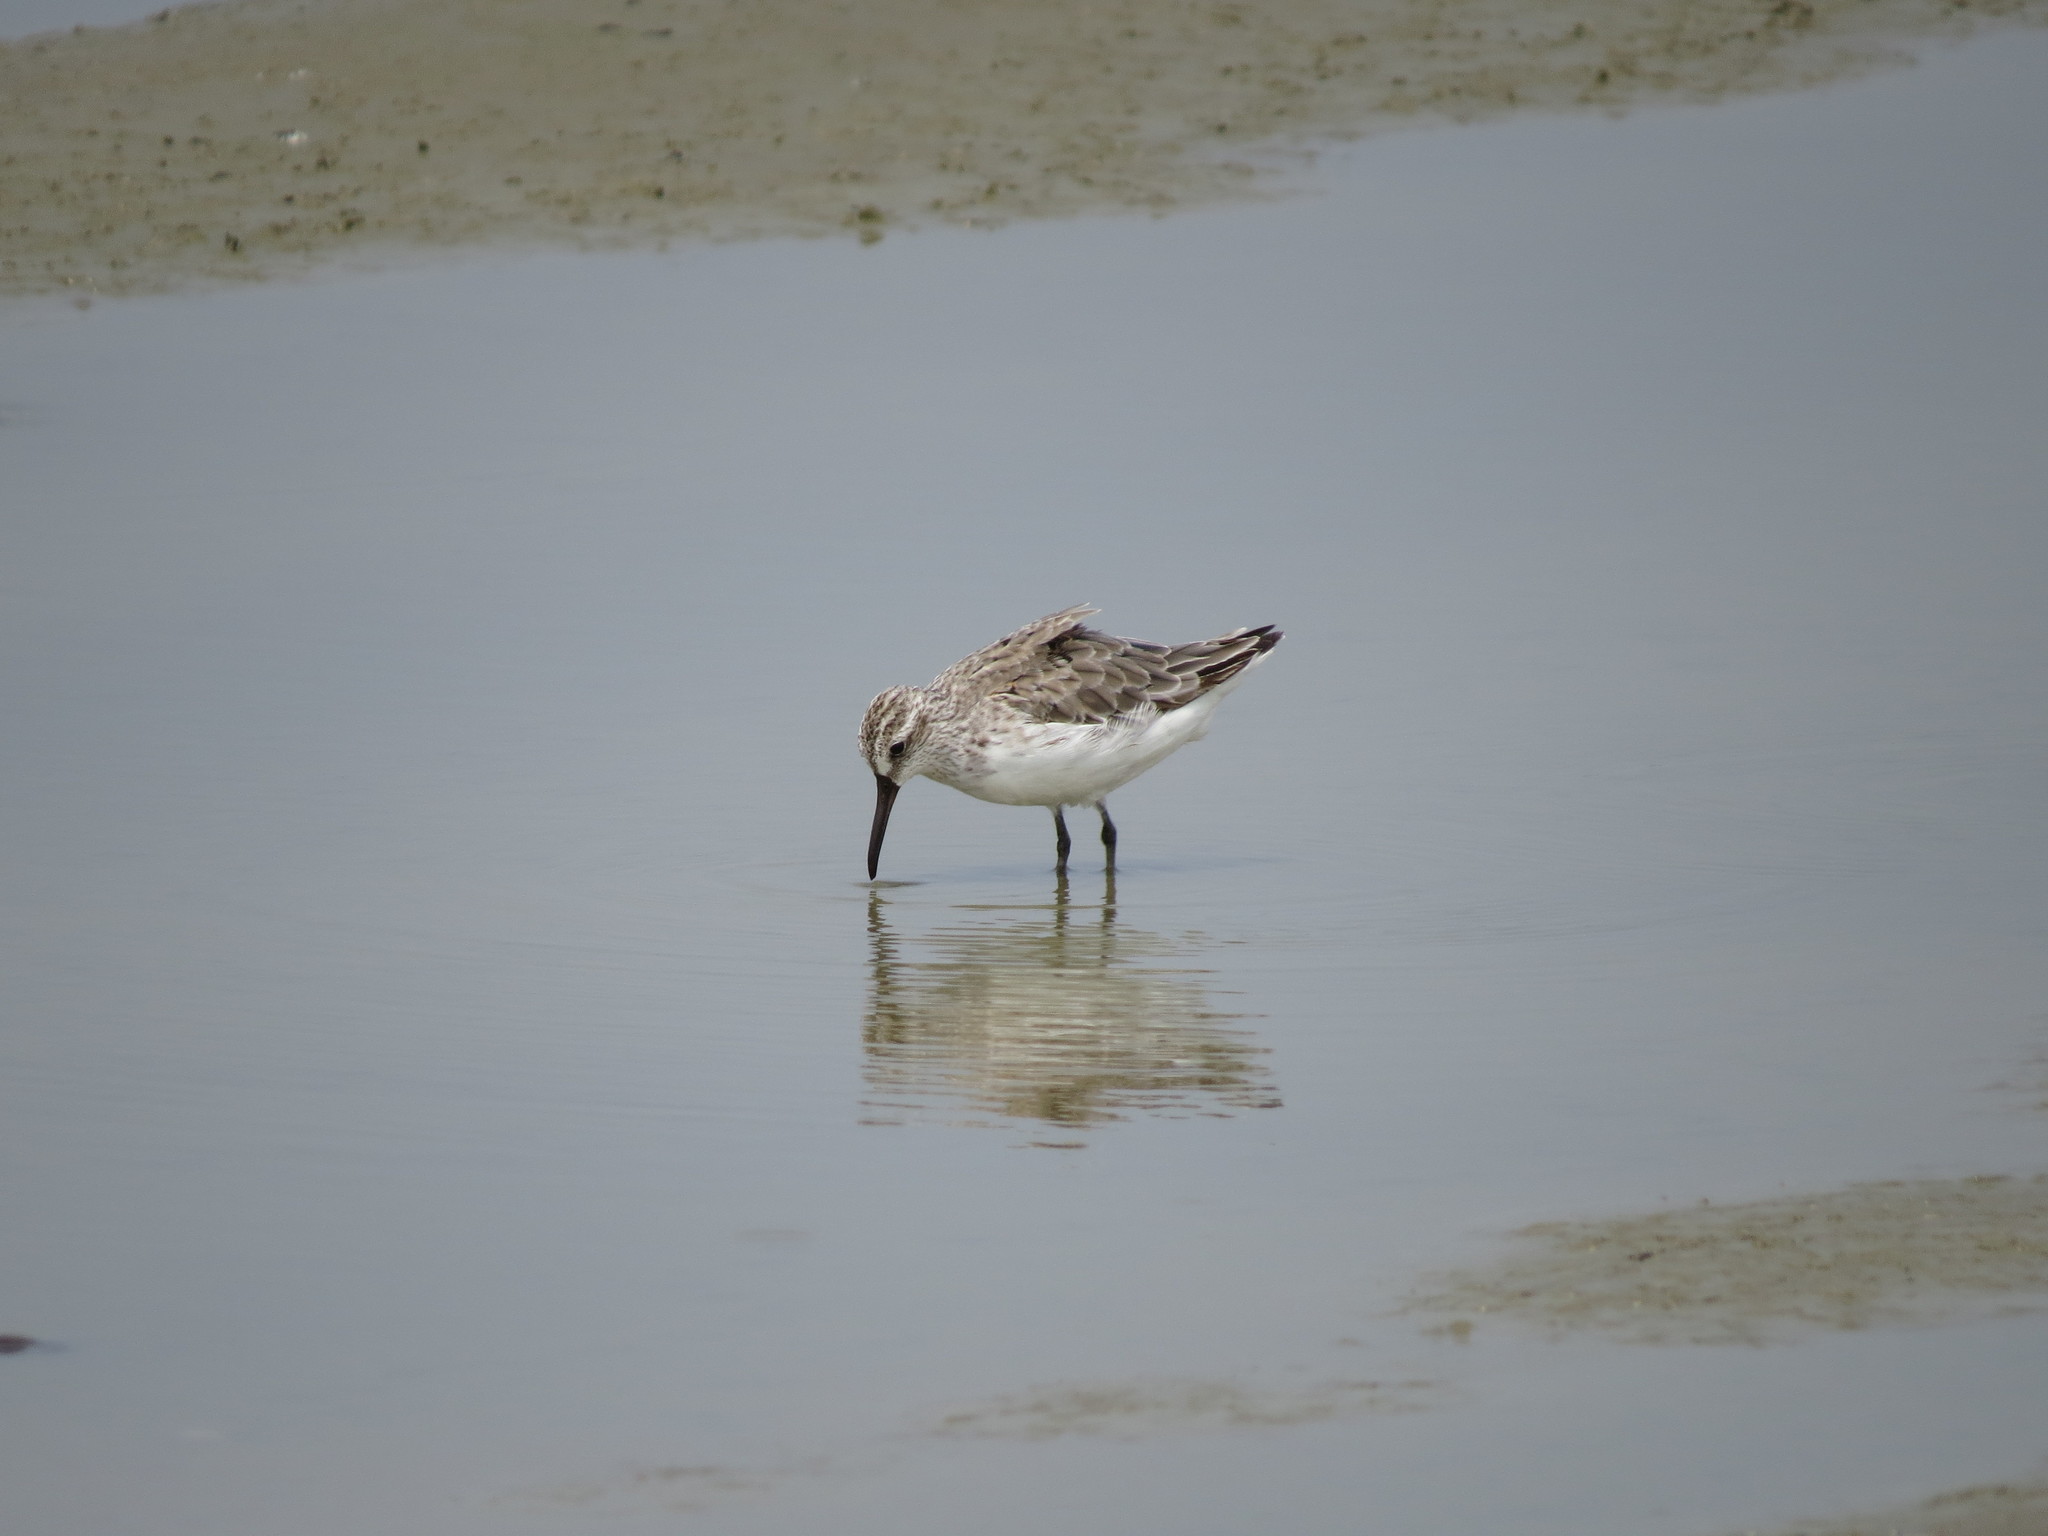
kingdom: Animalia
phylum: Chordata
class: Aves
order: Charadriiformes
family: Scolopacidae
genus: Calidris
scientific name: Calidris falcinellus
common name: Broad-billed sandpiper
